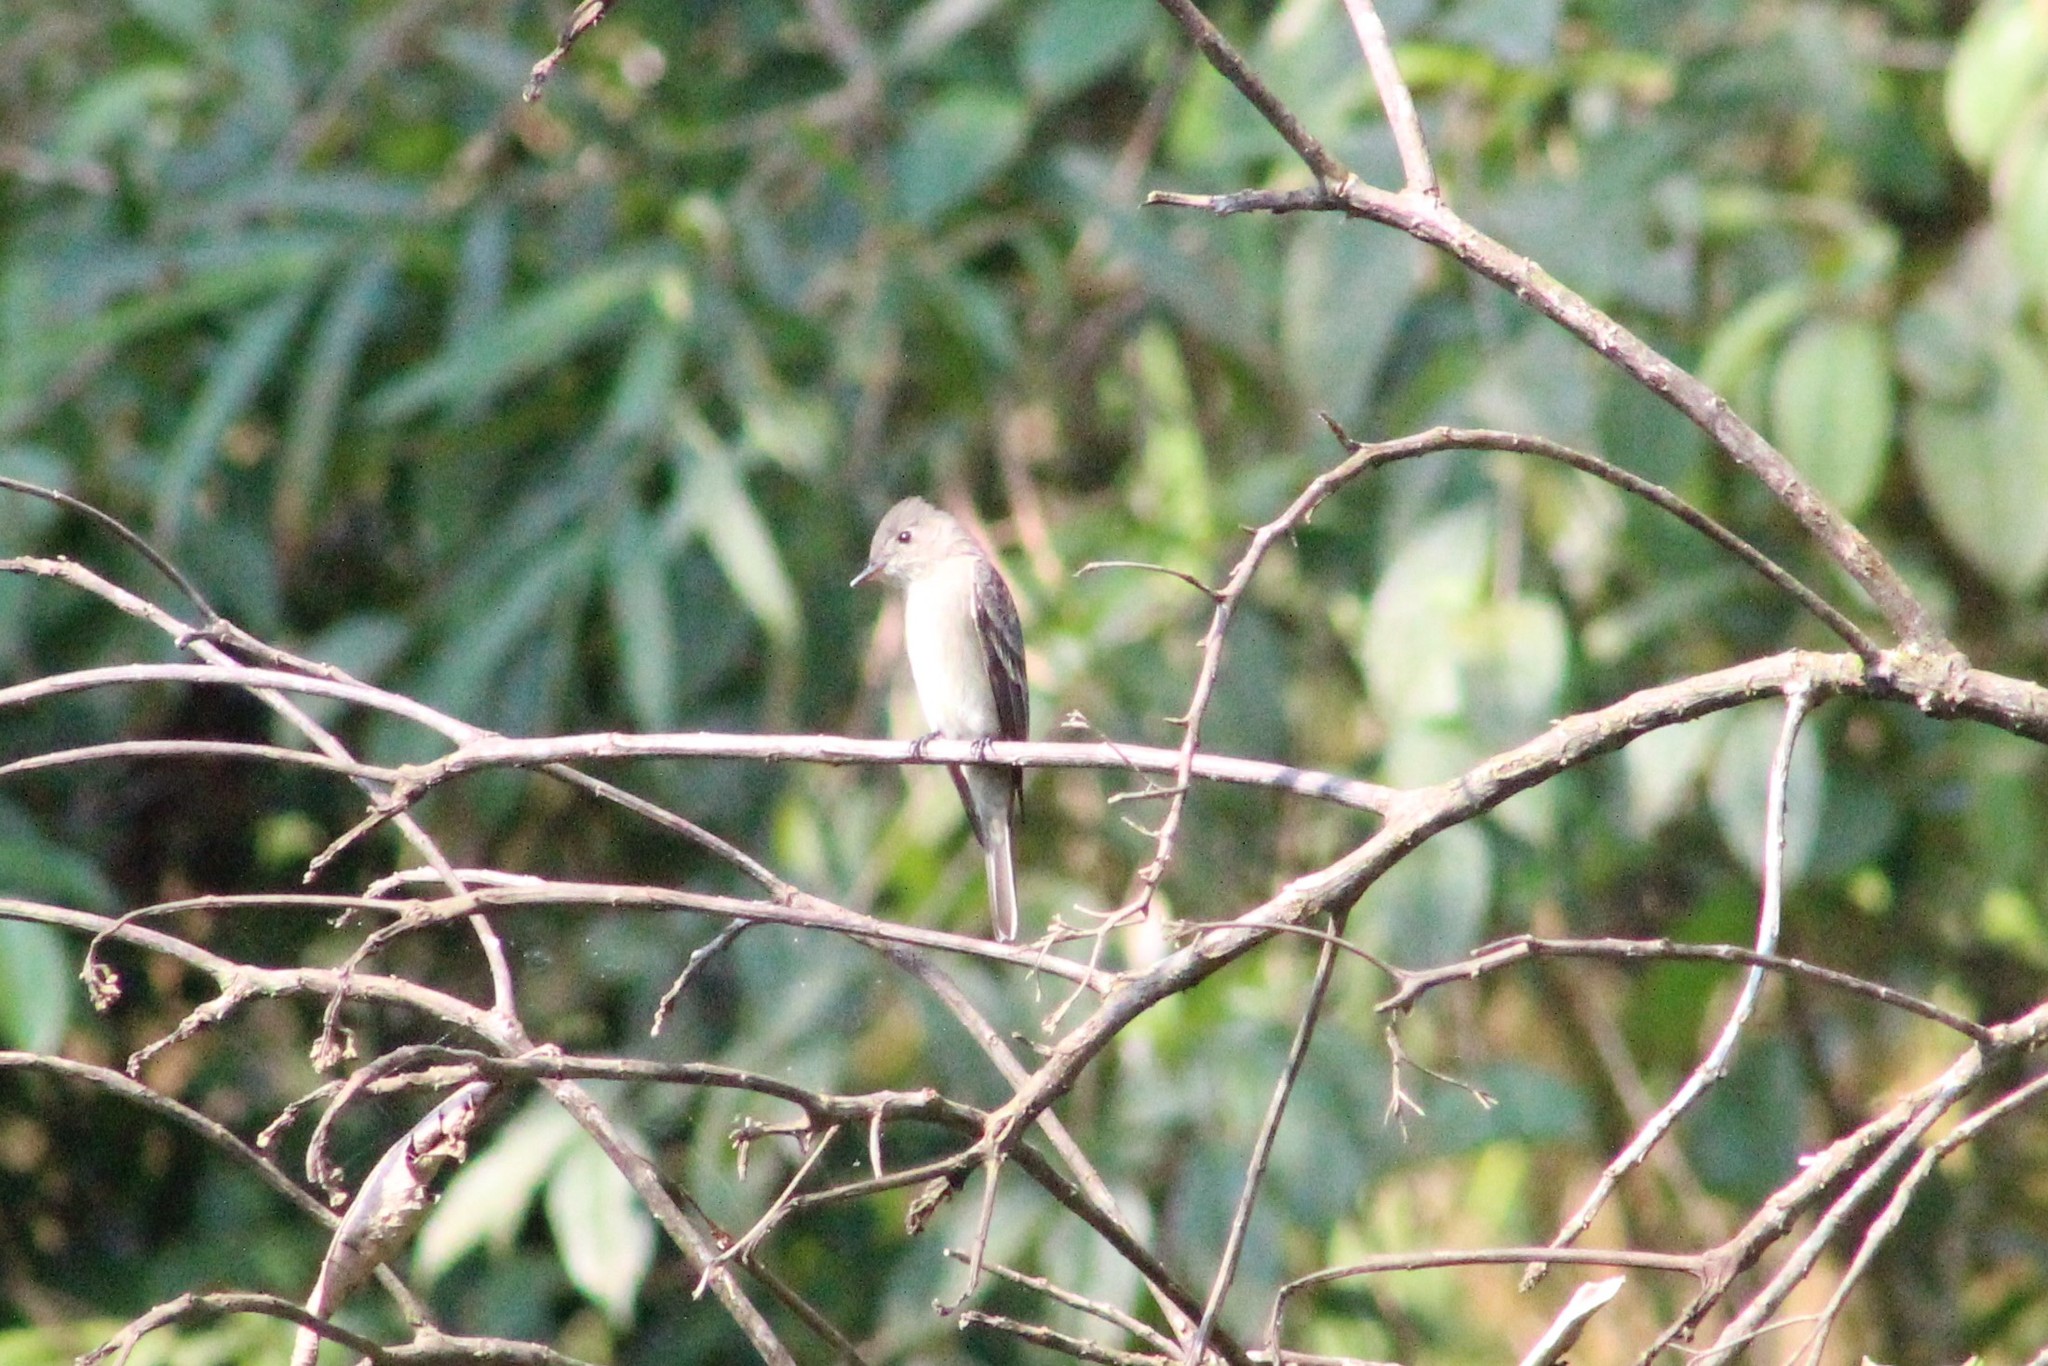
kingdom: Animalia
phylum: Chordata
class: Aves
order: Passeriformes
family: Tyrannidae
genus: Contopus
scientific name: Contopus virens
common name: Eastern wood-pewee
